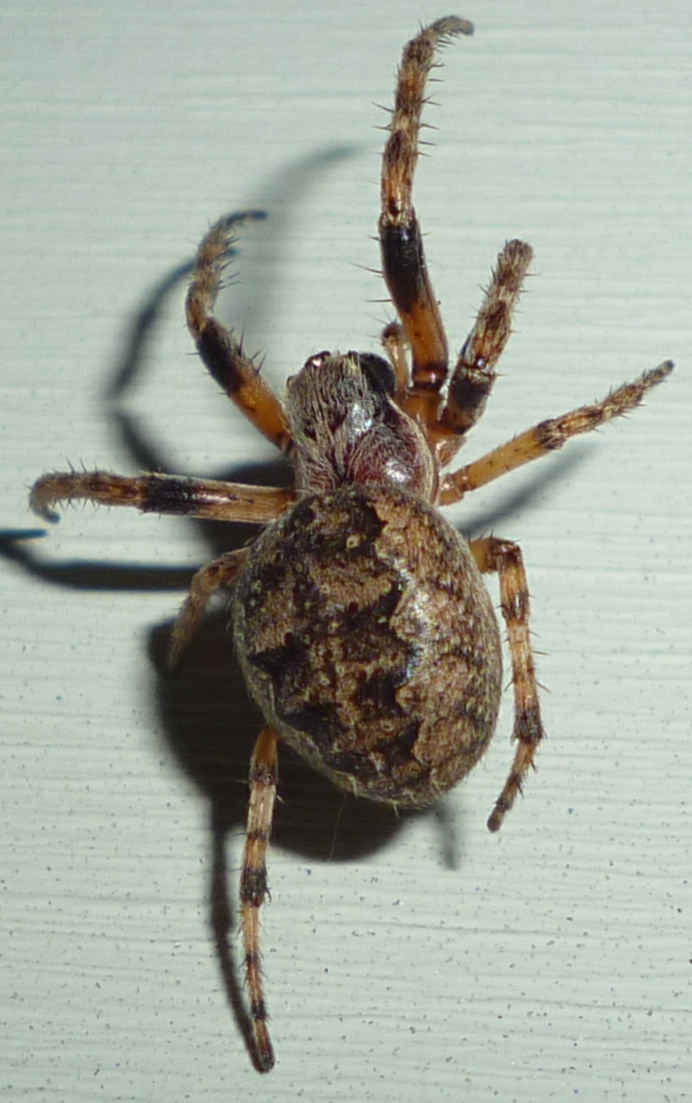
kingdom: Animalia
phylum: Arthropoda
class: Arachnida
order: Araneae
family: Araneidae
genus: Larinioides
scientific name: Larinioides patagiatus
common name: Ornamental orbweaver
